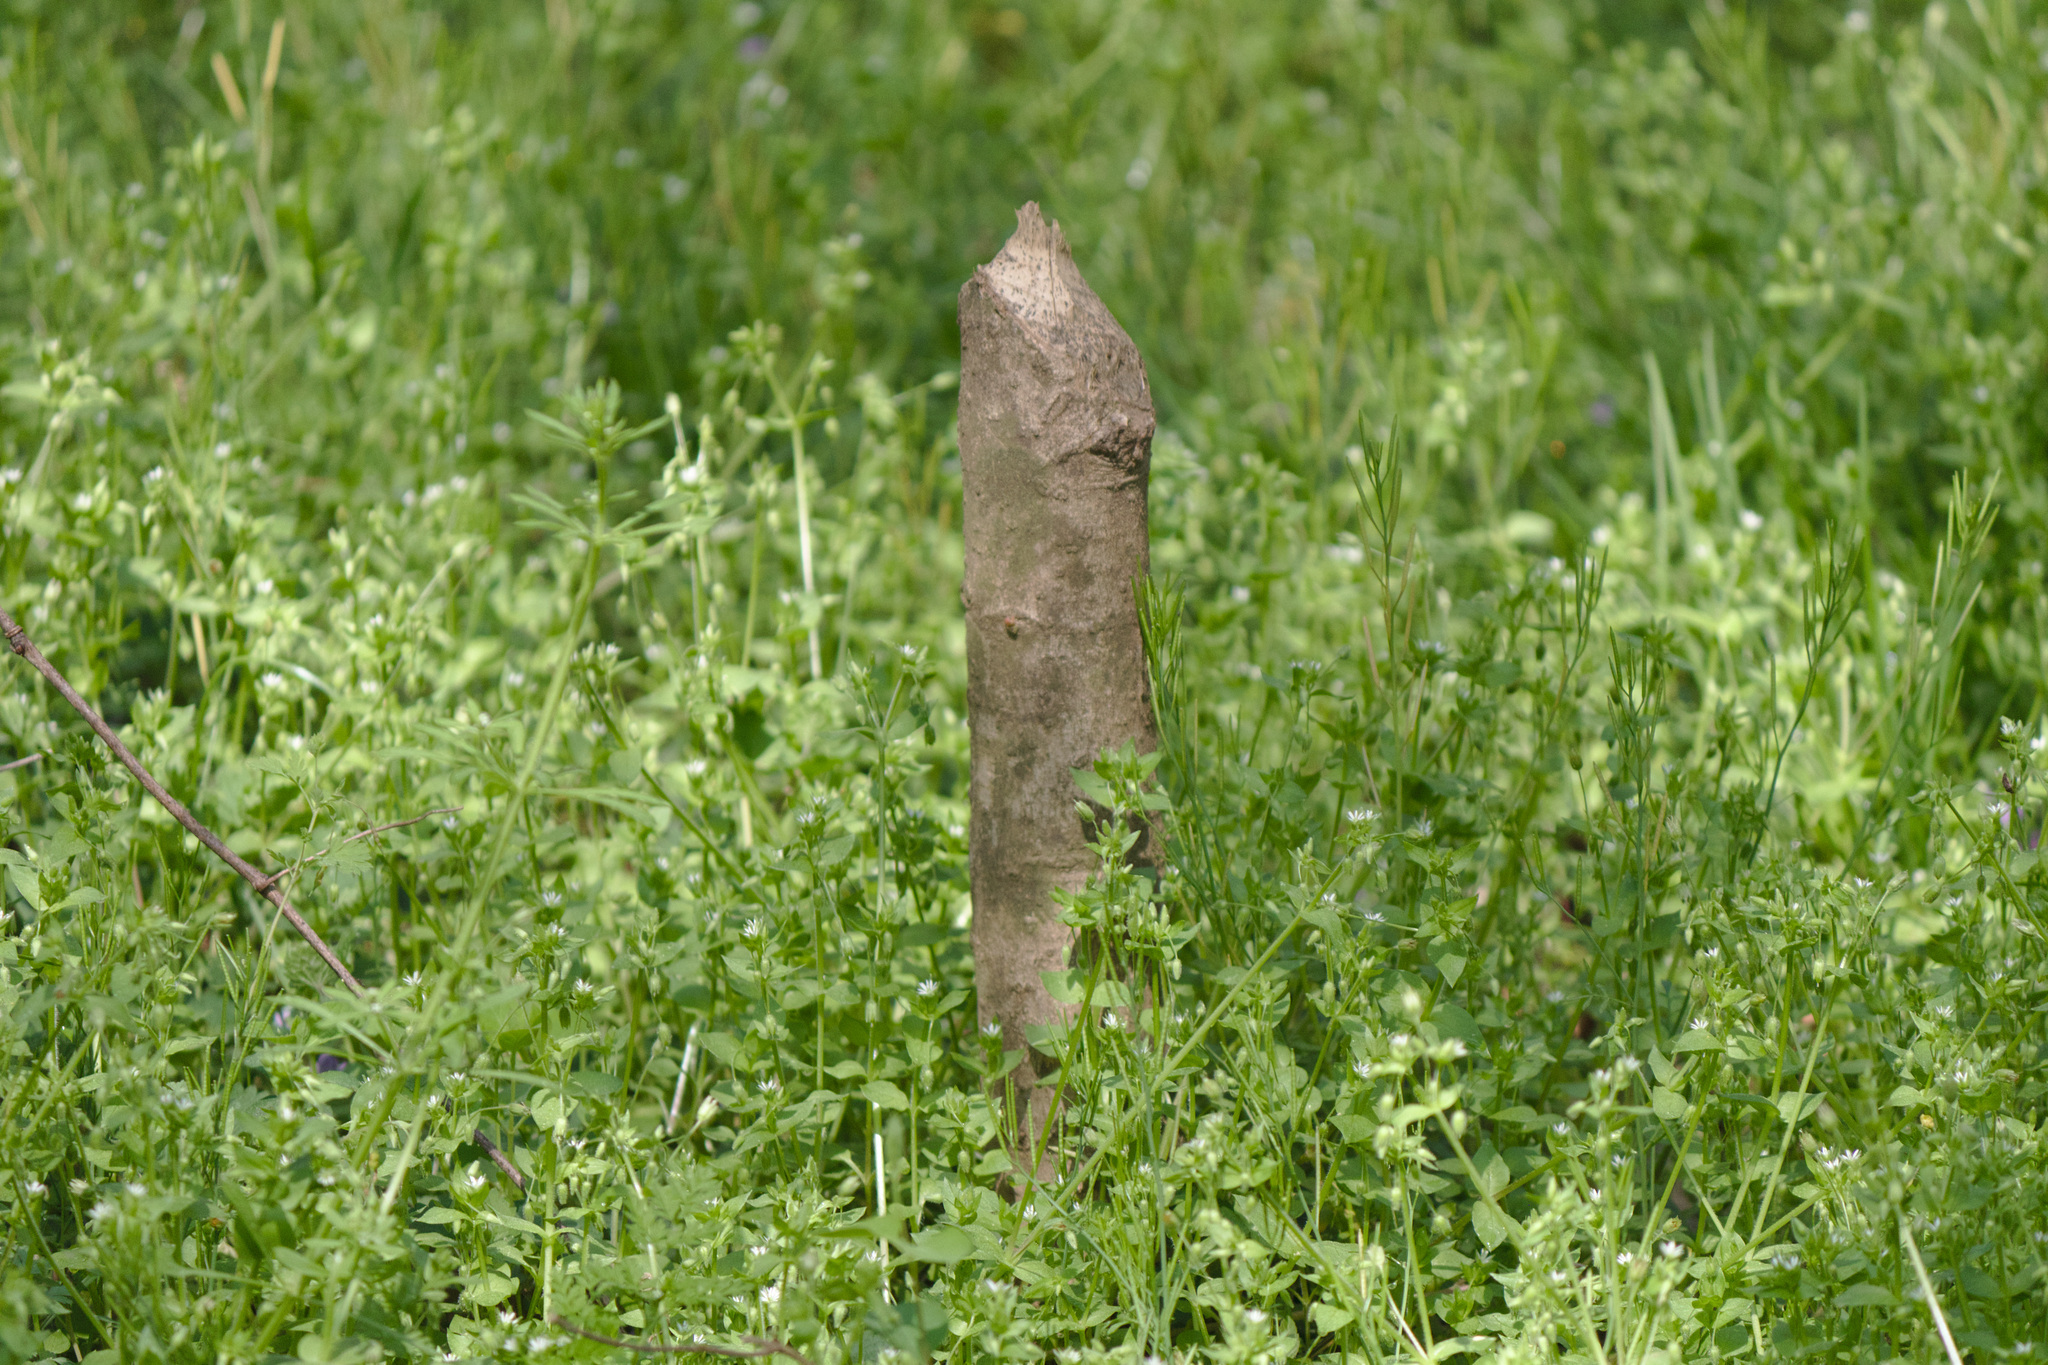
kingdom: Animalia
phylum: Chordata
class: Mammalia
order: Rodentia
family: Castoridae
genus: Castor
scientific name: Castor canadensis
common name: American beaver
